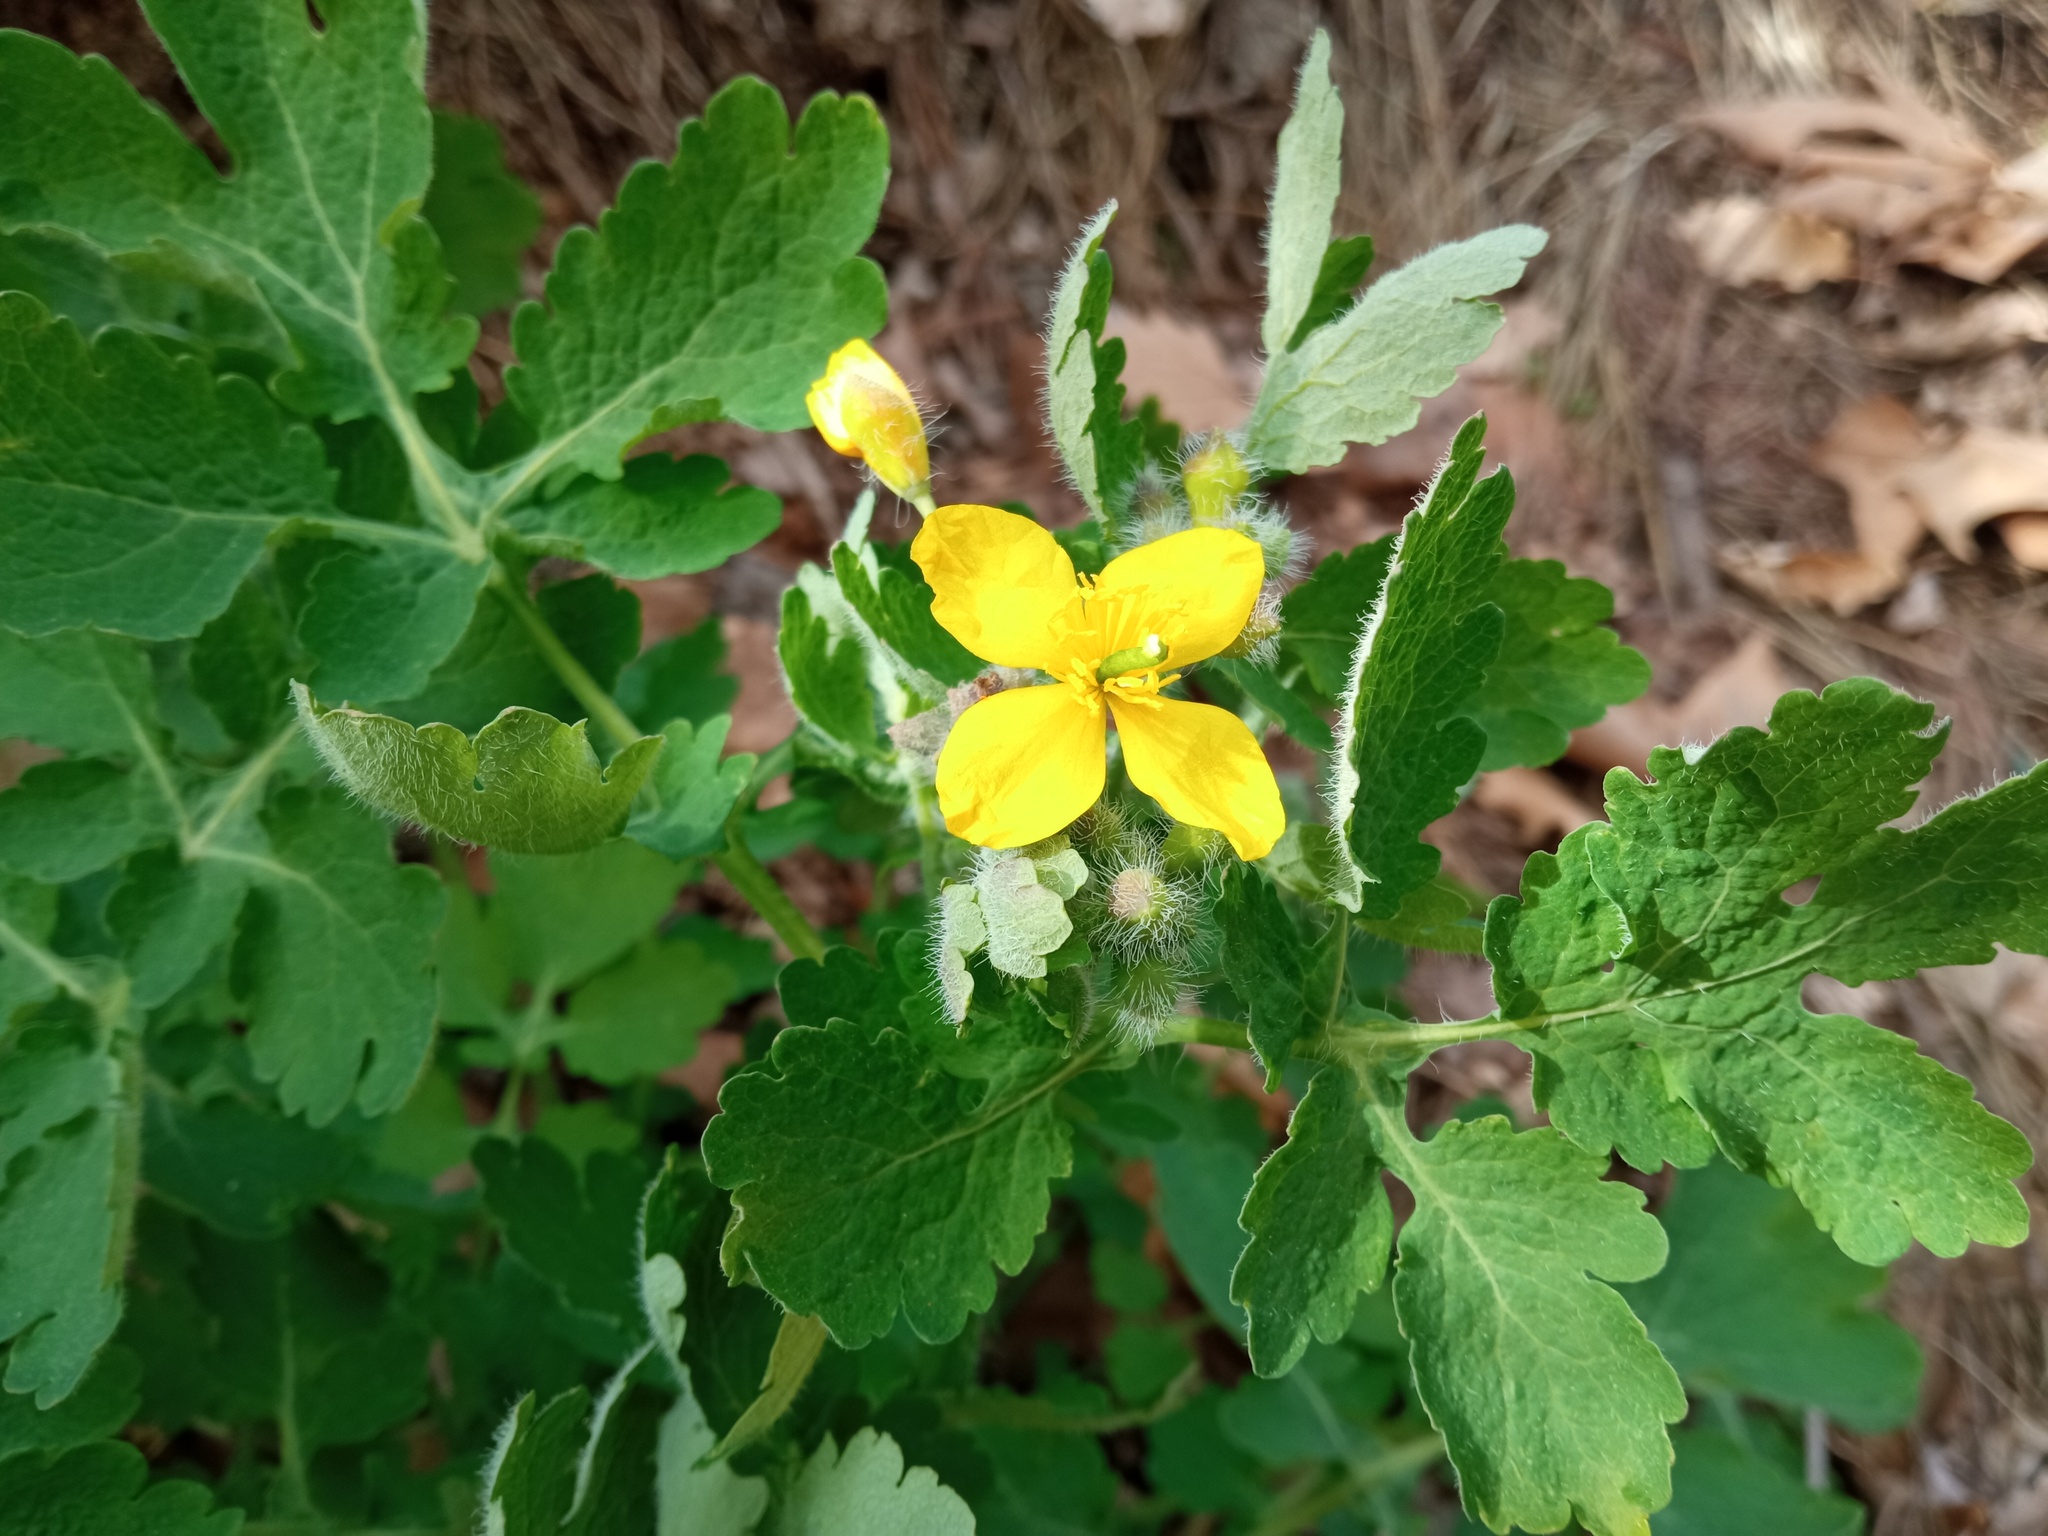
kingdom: Plantae
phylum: Tracheophyta
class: Magnoliopsida
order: Ranunculales
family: Papaveraceae
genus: Chelidonium
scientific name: Chelidonium majus
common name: Greater celandine
